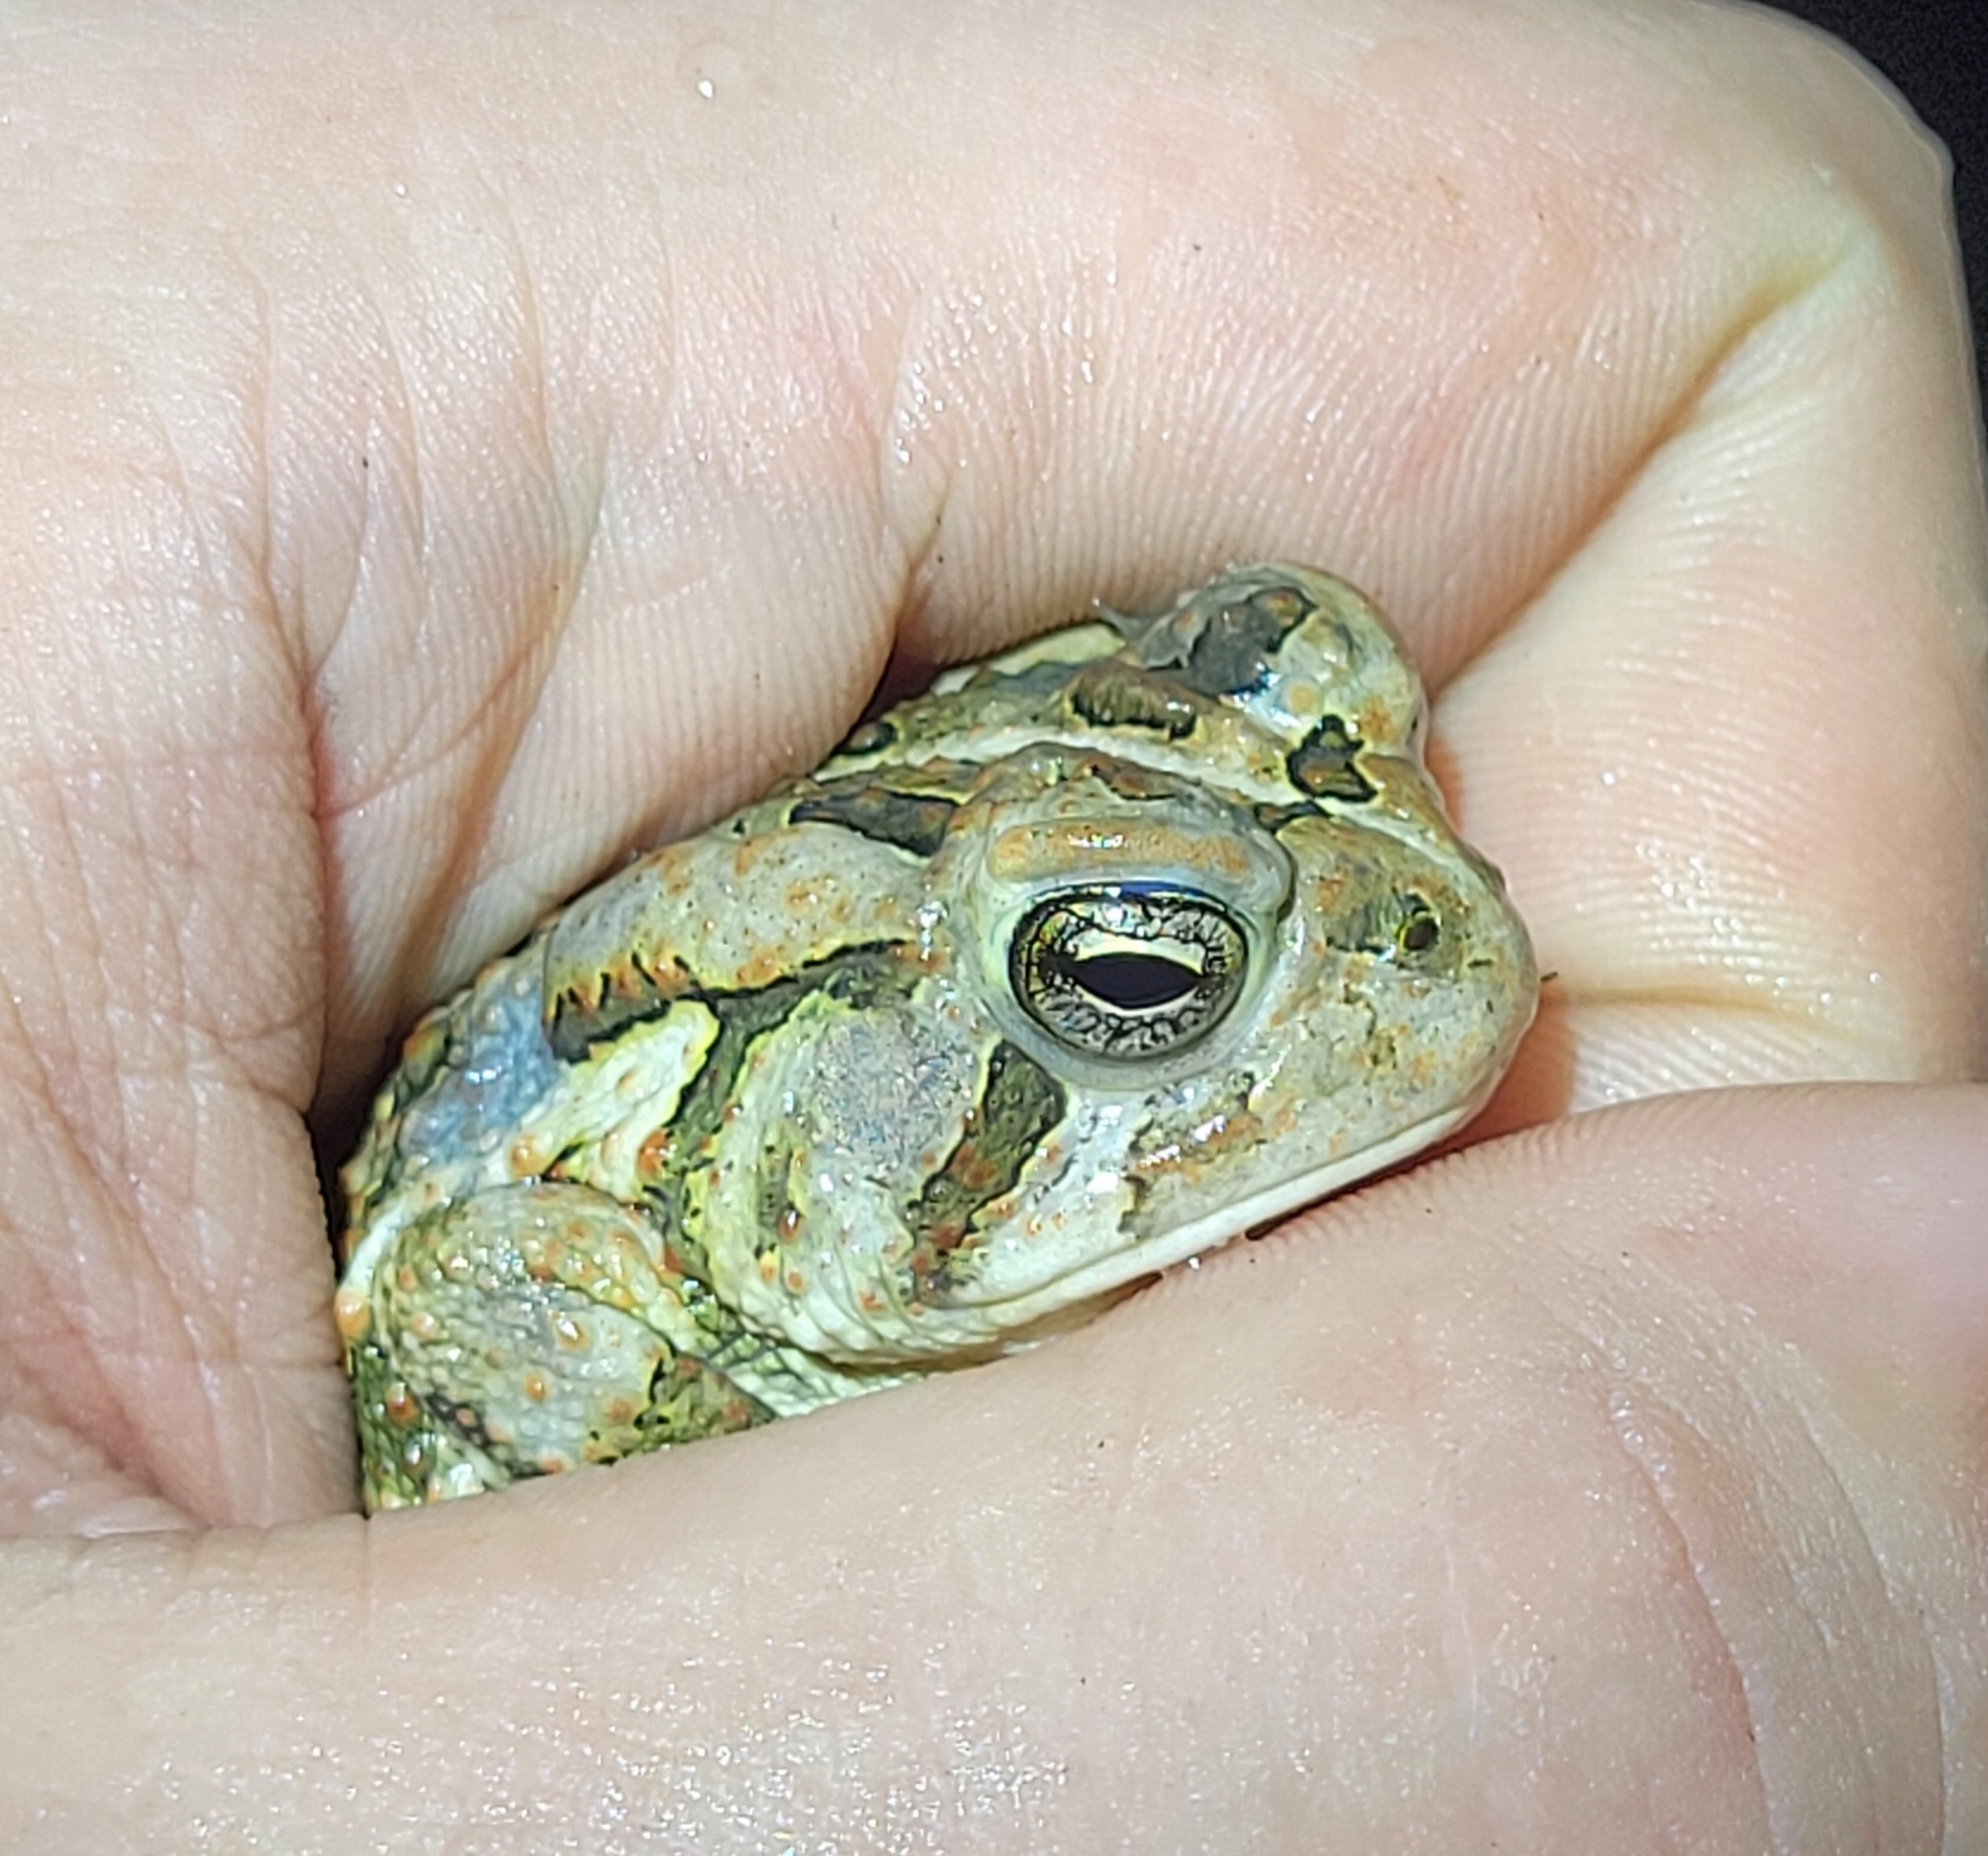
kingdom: Animalia
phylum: Chordata
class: Amphibia
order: Anura
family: Bufonidae
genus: Anaxyrus
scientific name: Anaxyrus fowleri
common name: Fowler's toad
